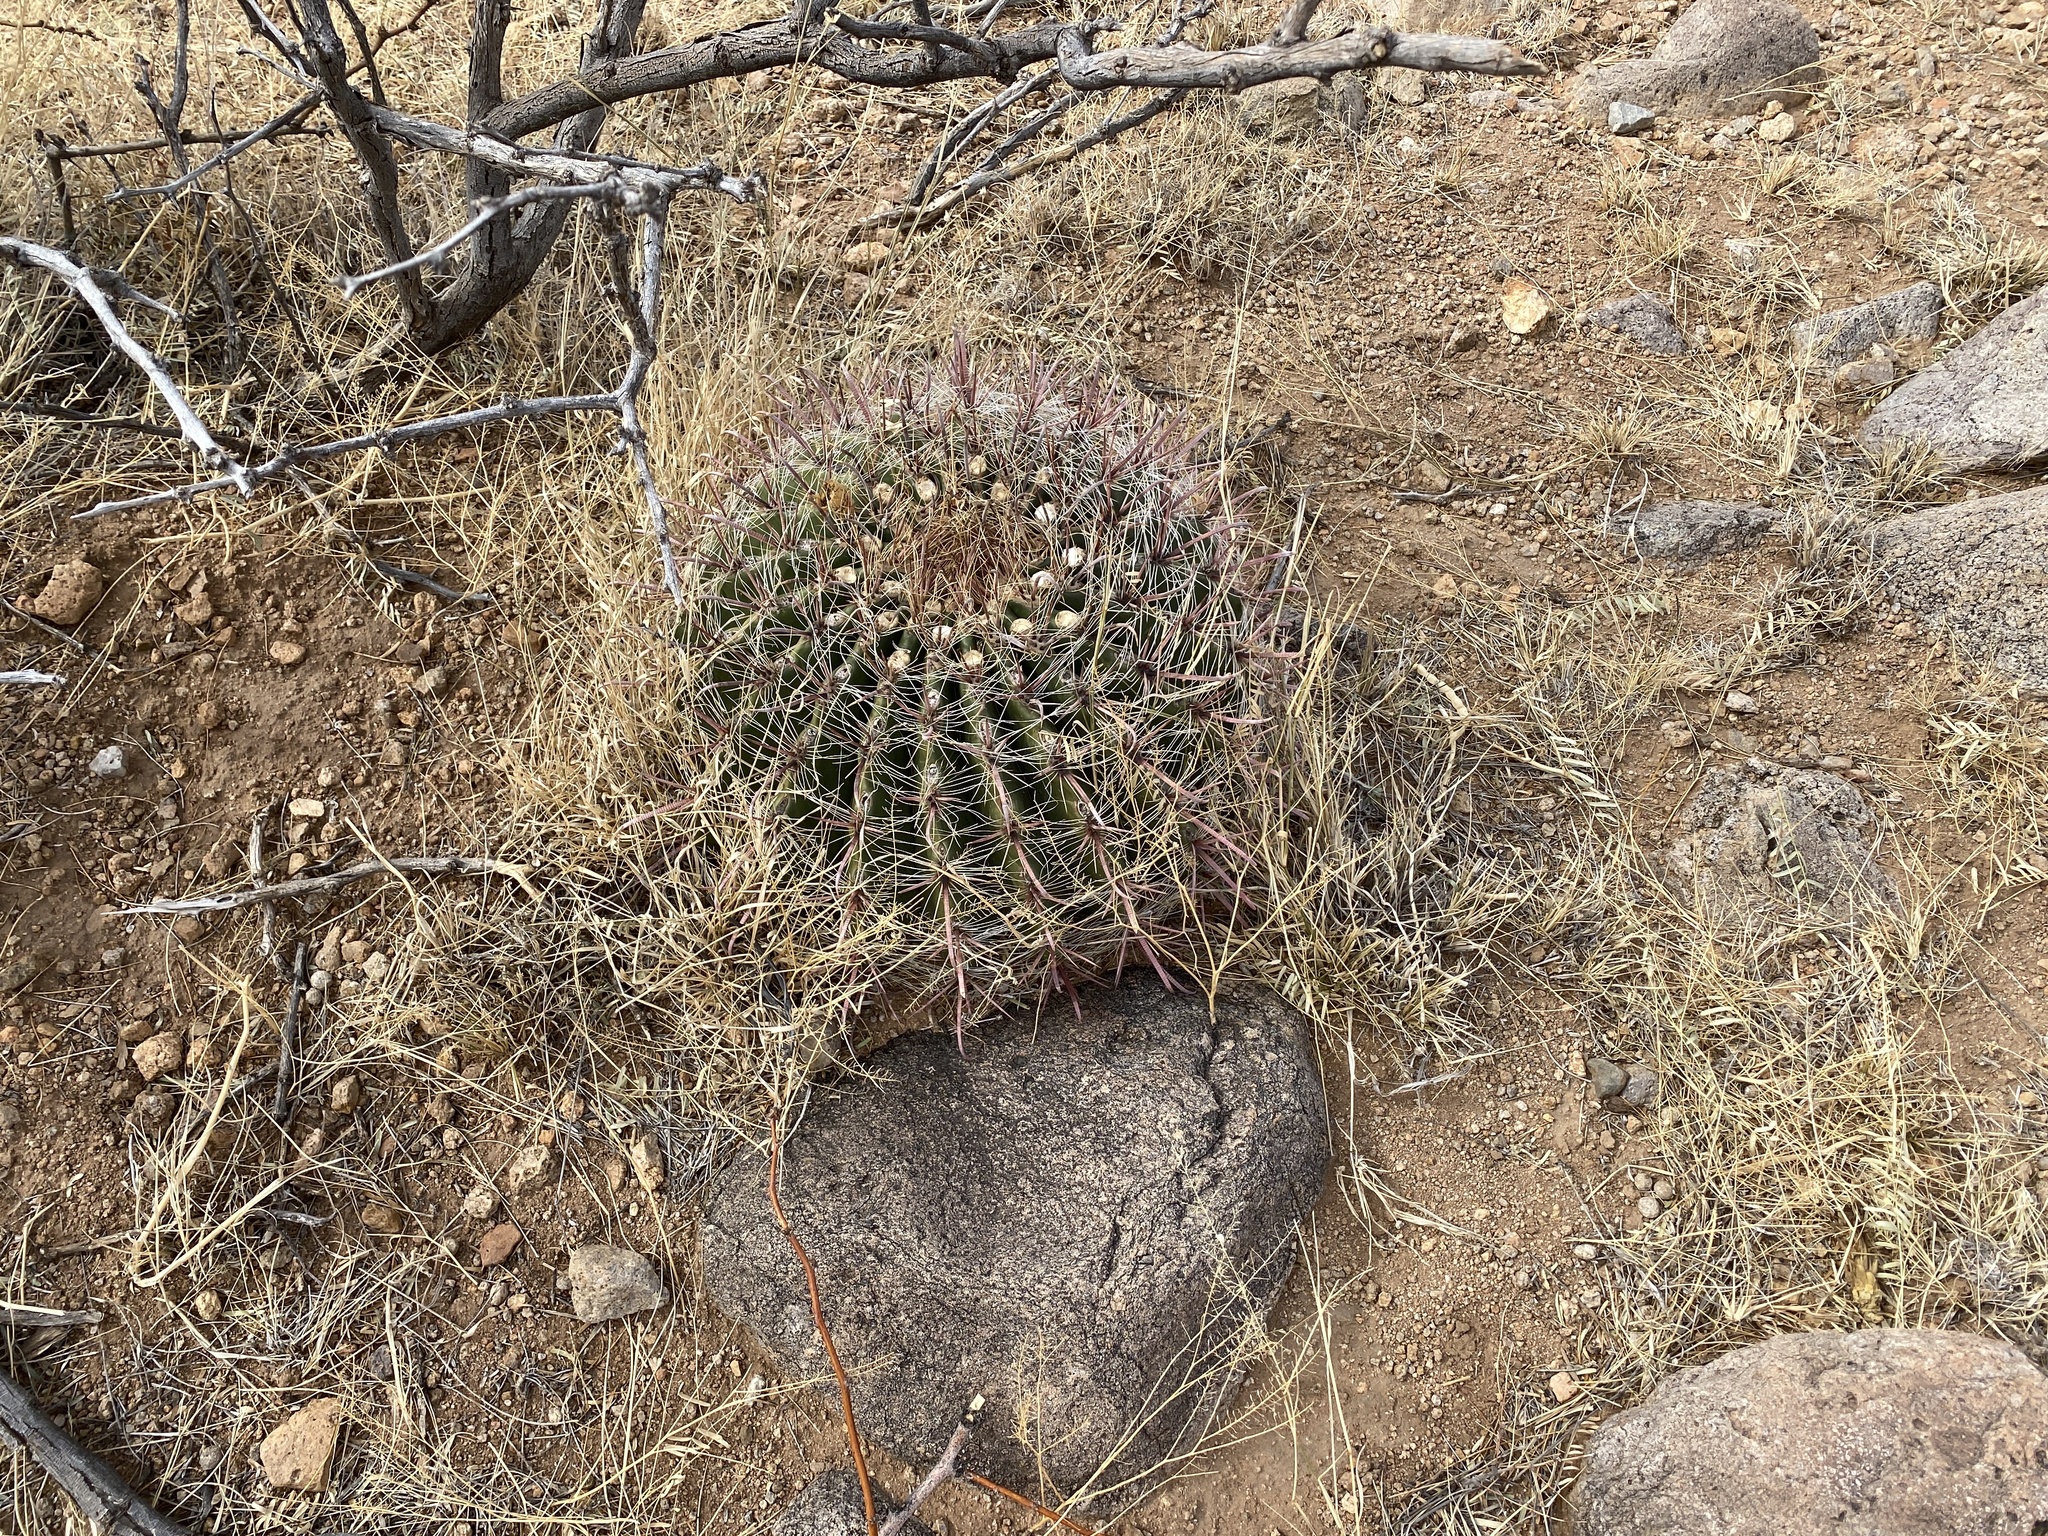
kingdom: Plantae
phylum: Tracheophyta
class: Magnoliopsida
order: Caryophyllales
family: Cactaceae
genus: Ferocactus
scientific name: Ferocactus wislizeni
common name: Candy barrel cactus
